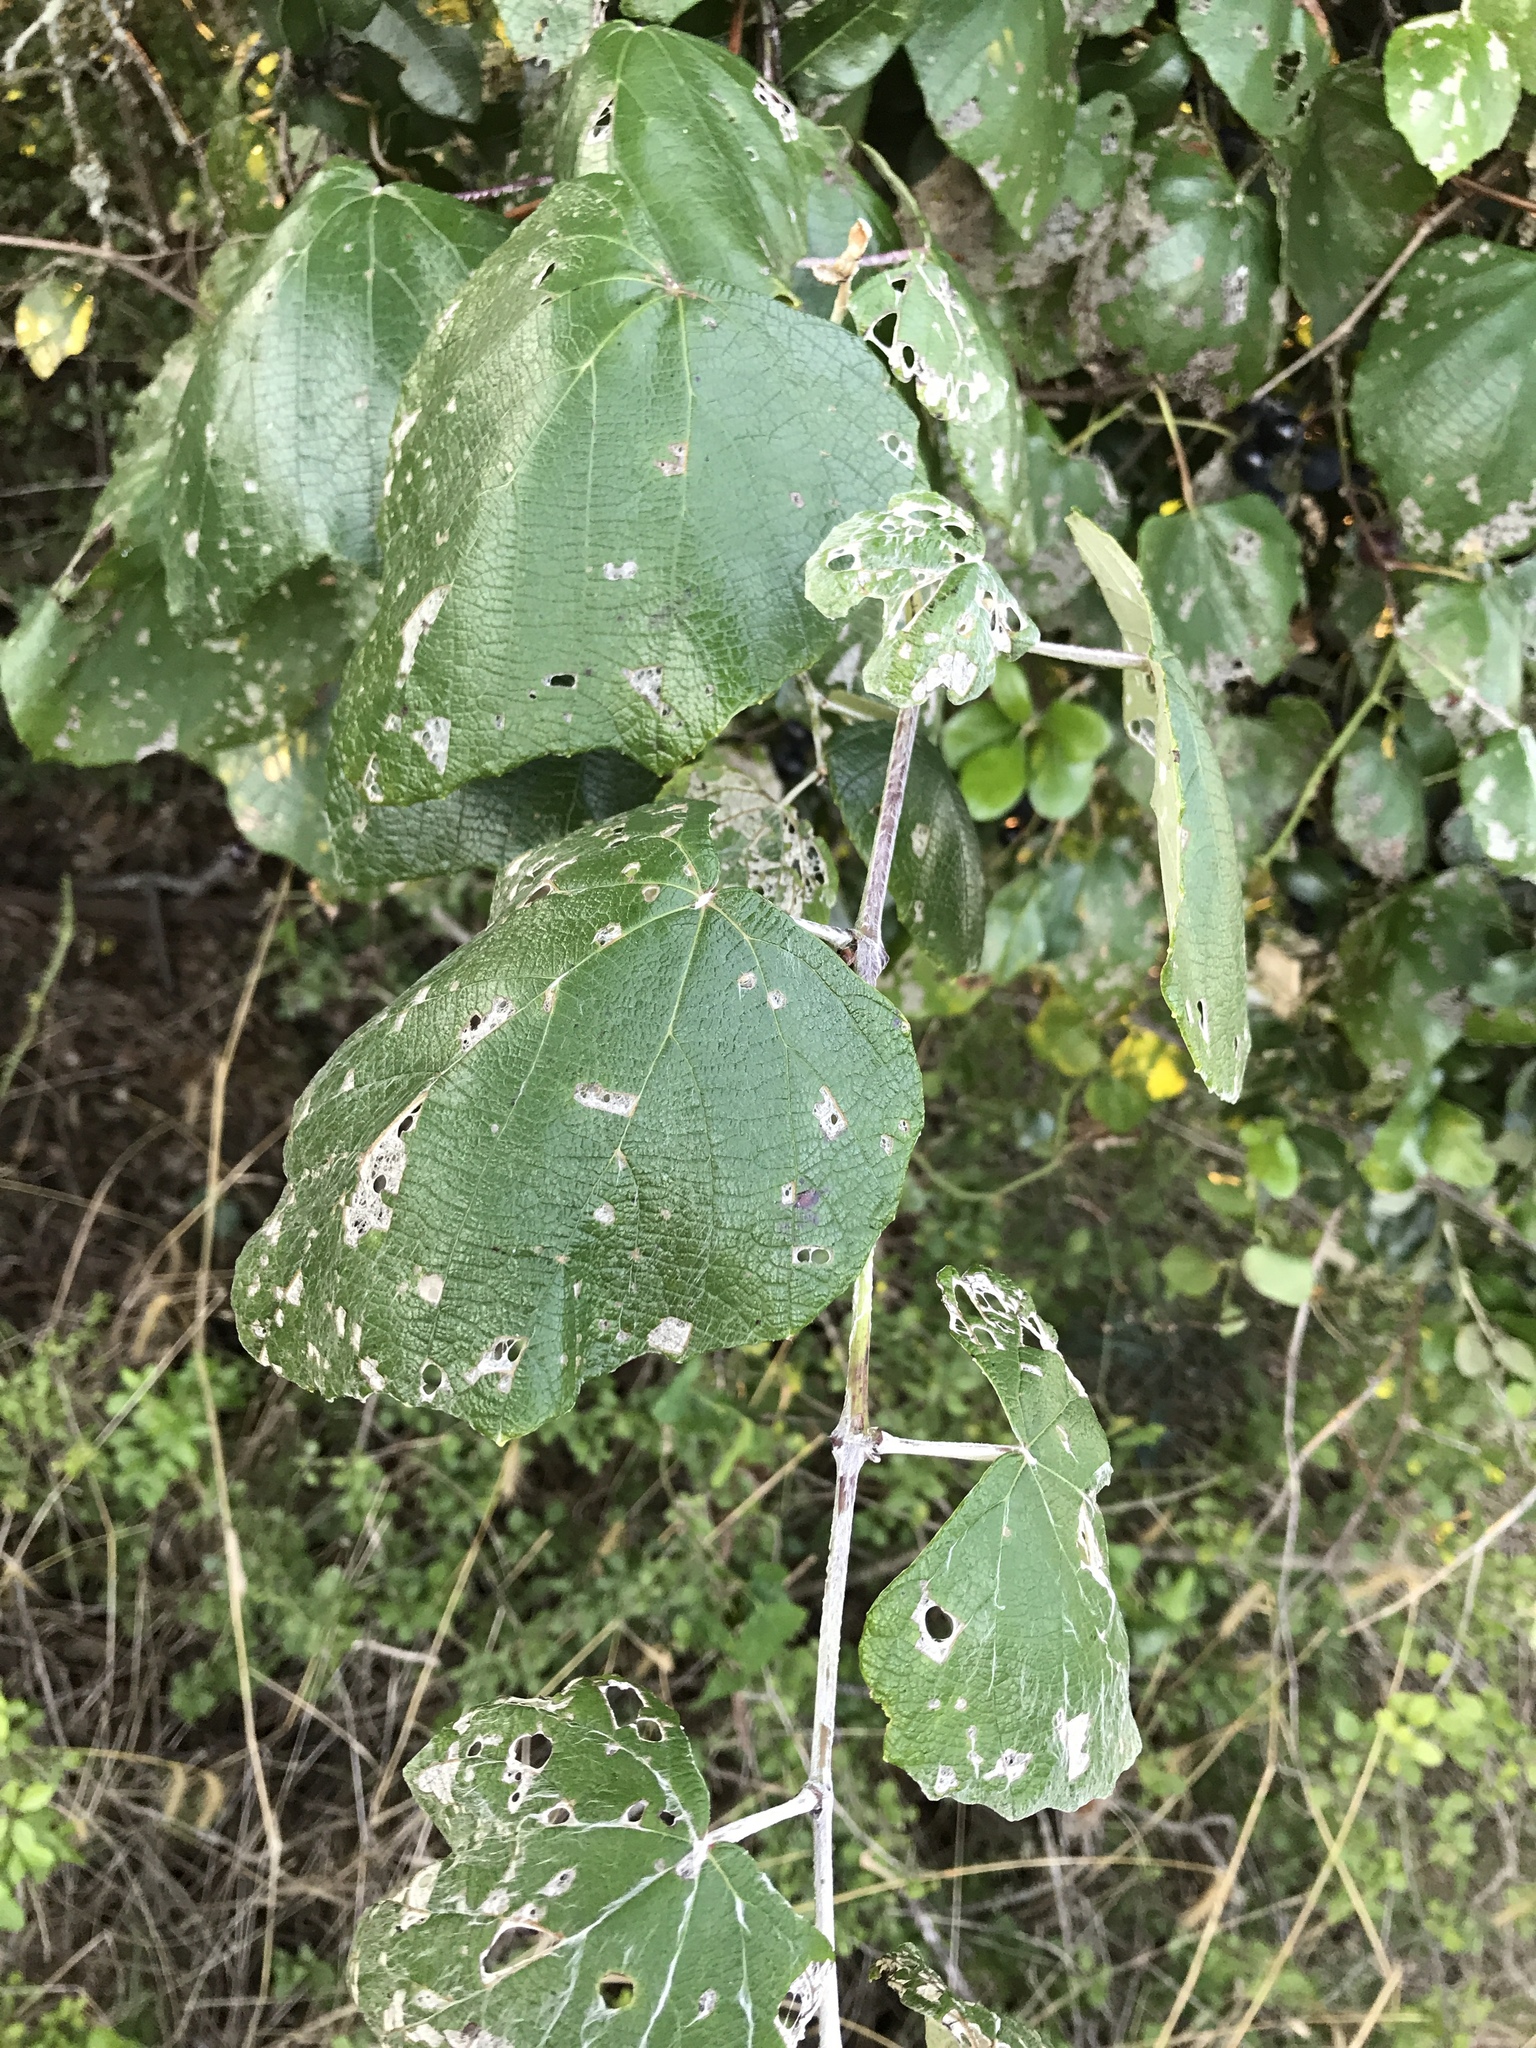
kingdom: Plantae
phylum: Tracheophyta
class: Magnoliopsida
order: Vitales
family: Vitaceae
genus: Vitis
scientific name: Vitis mustangensis
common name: Mustang grape
